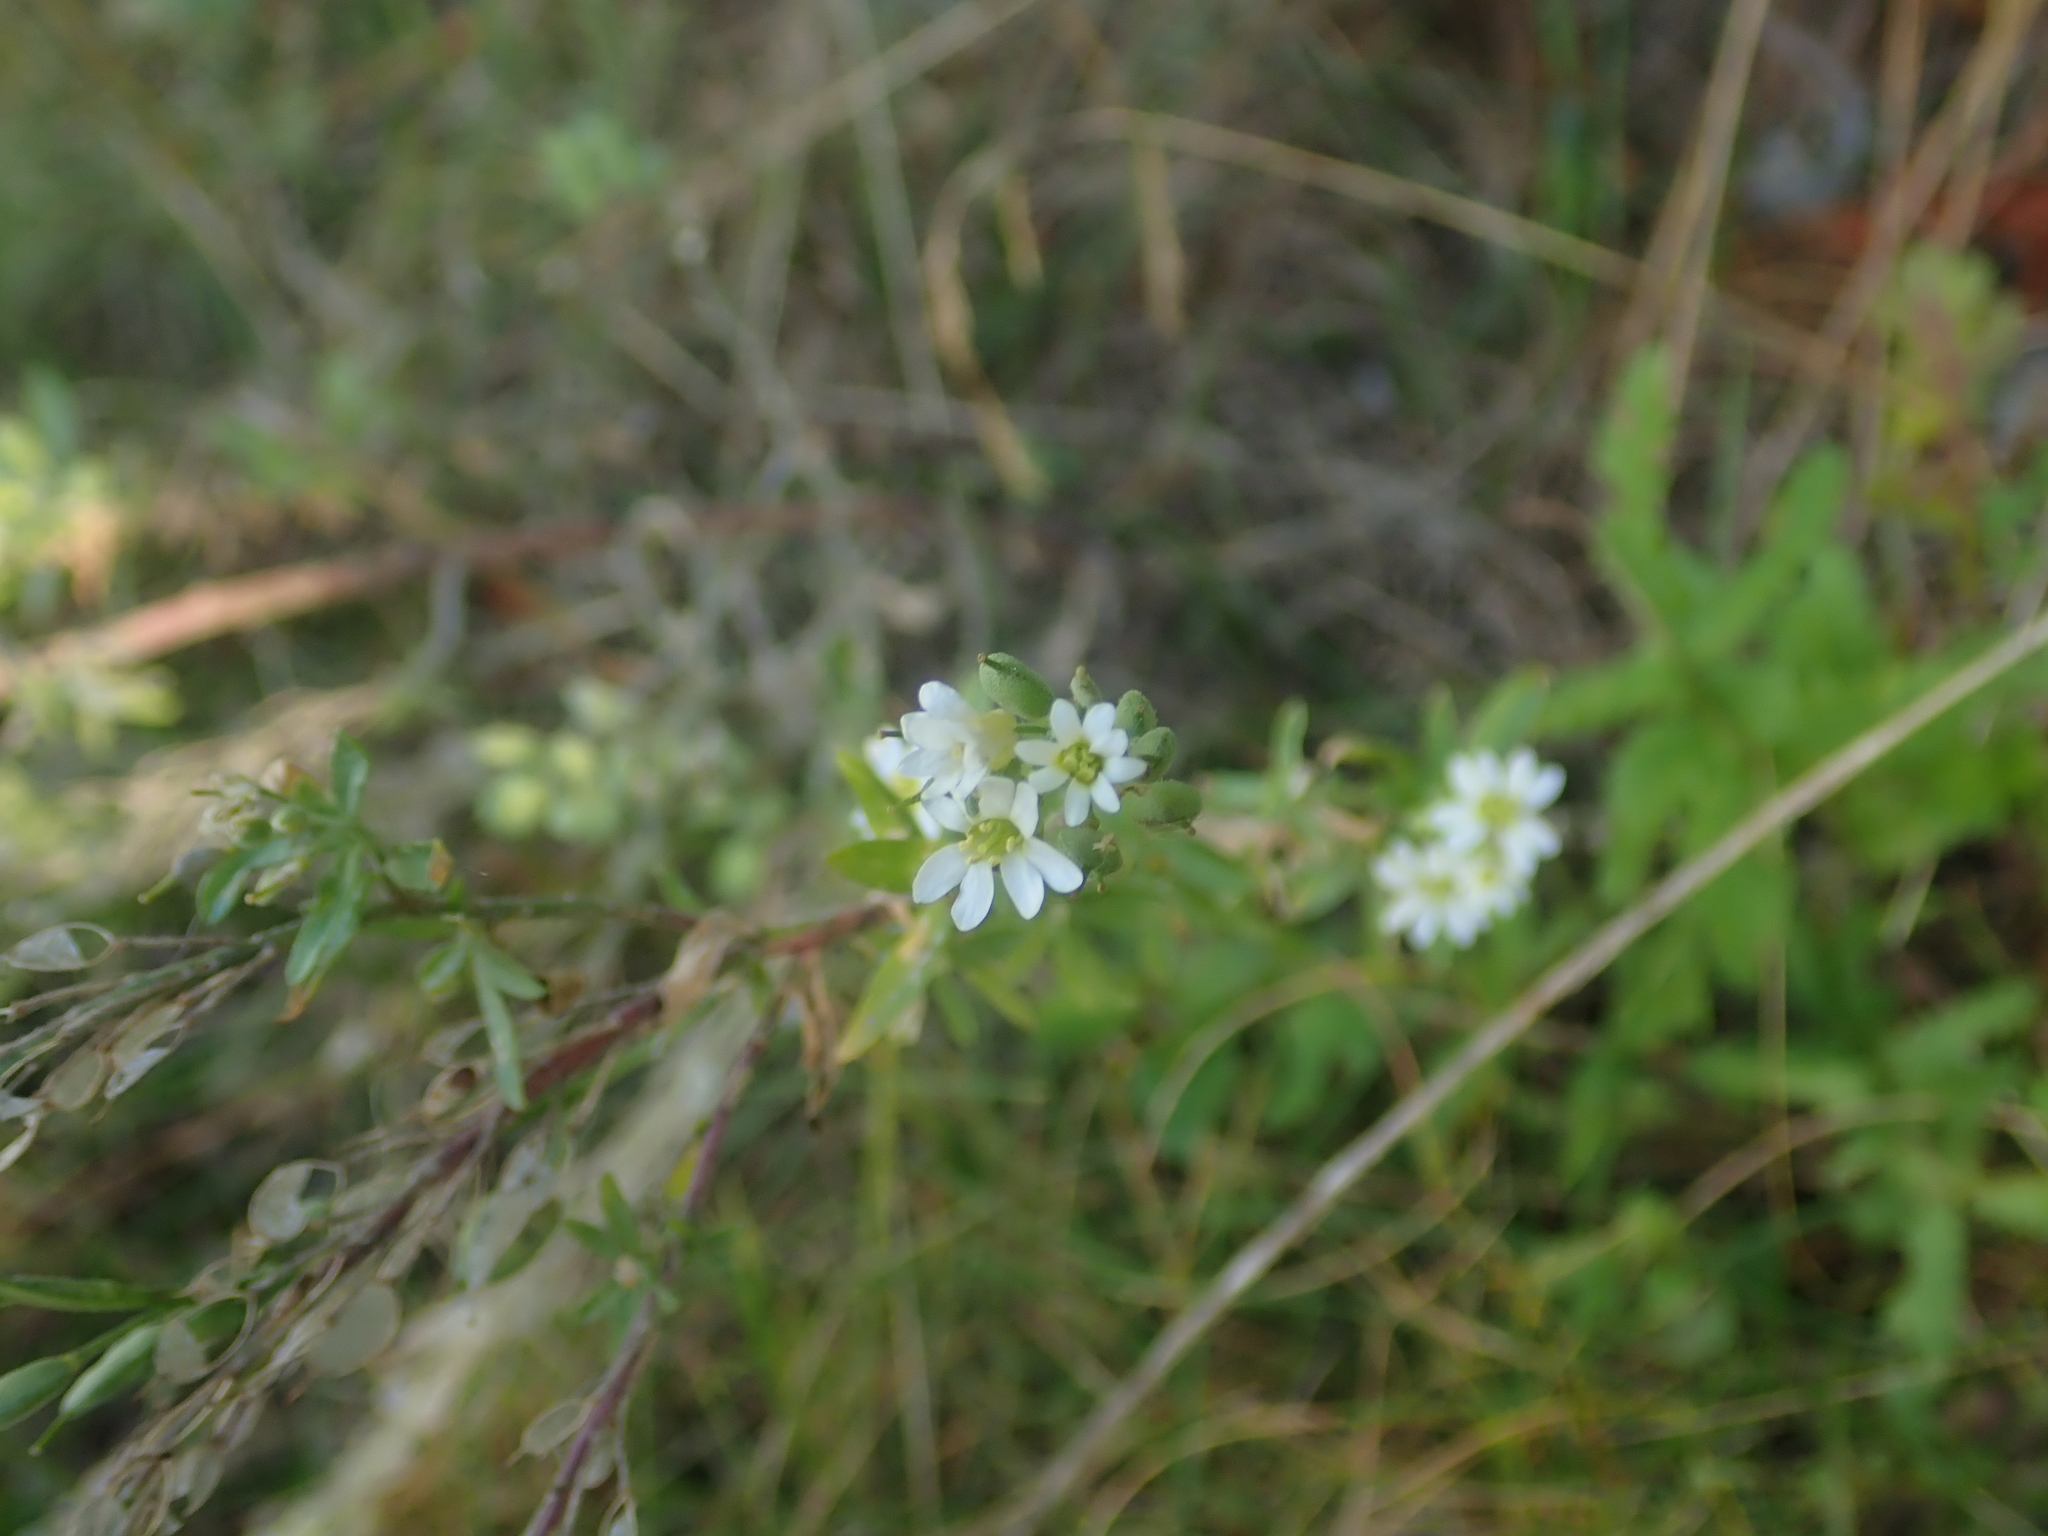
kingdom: Plantae
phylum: Tracheophyta
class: Magnoliopsida
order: Brassicales
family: Brassicaceae
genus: Berteroa
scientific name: Berteroa incana
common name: Hoary alison
